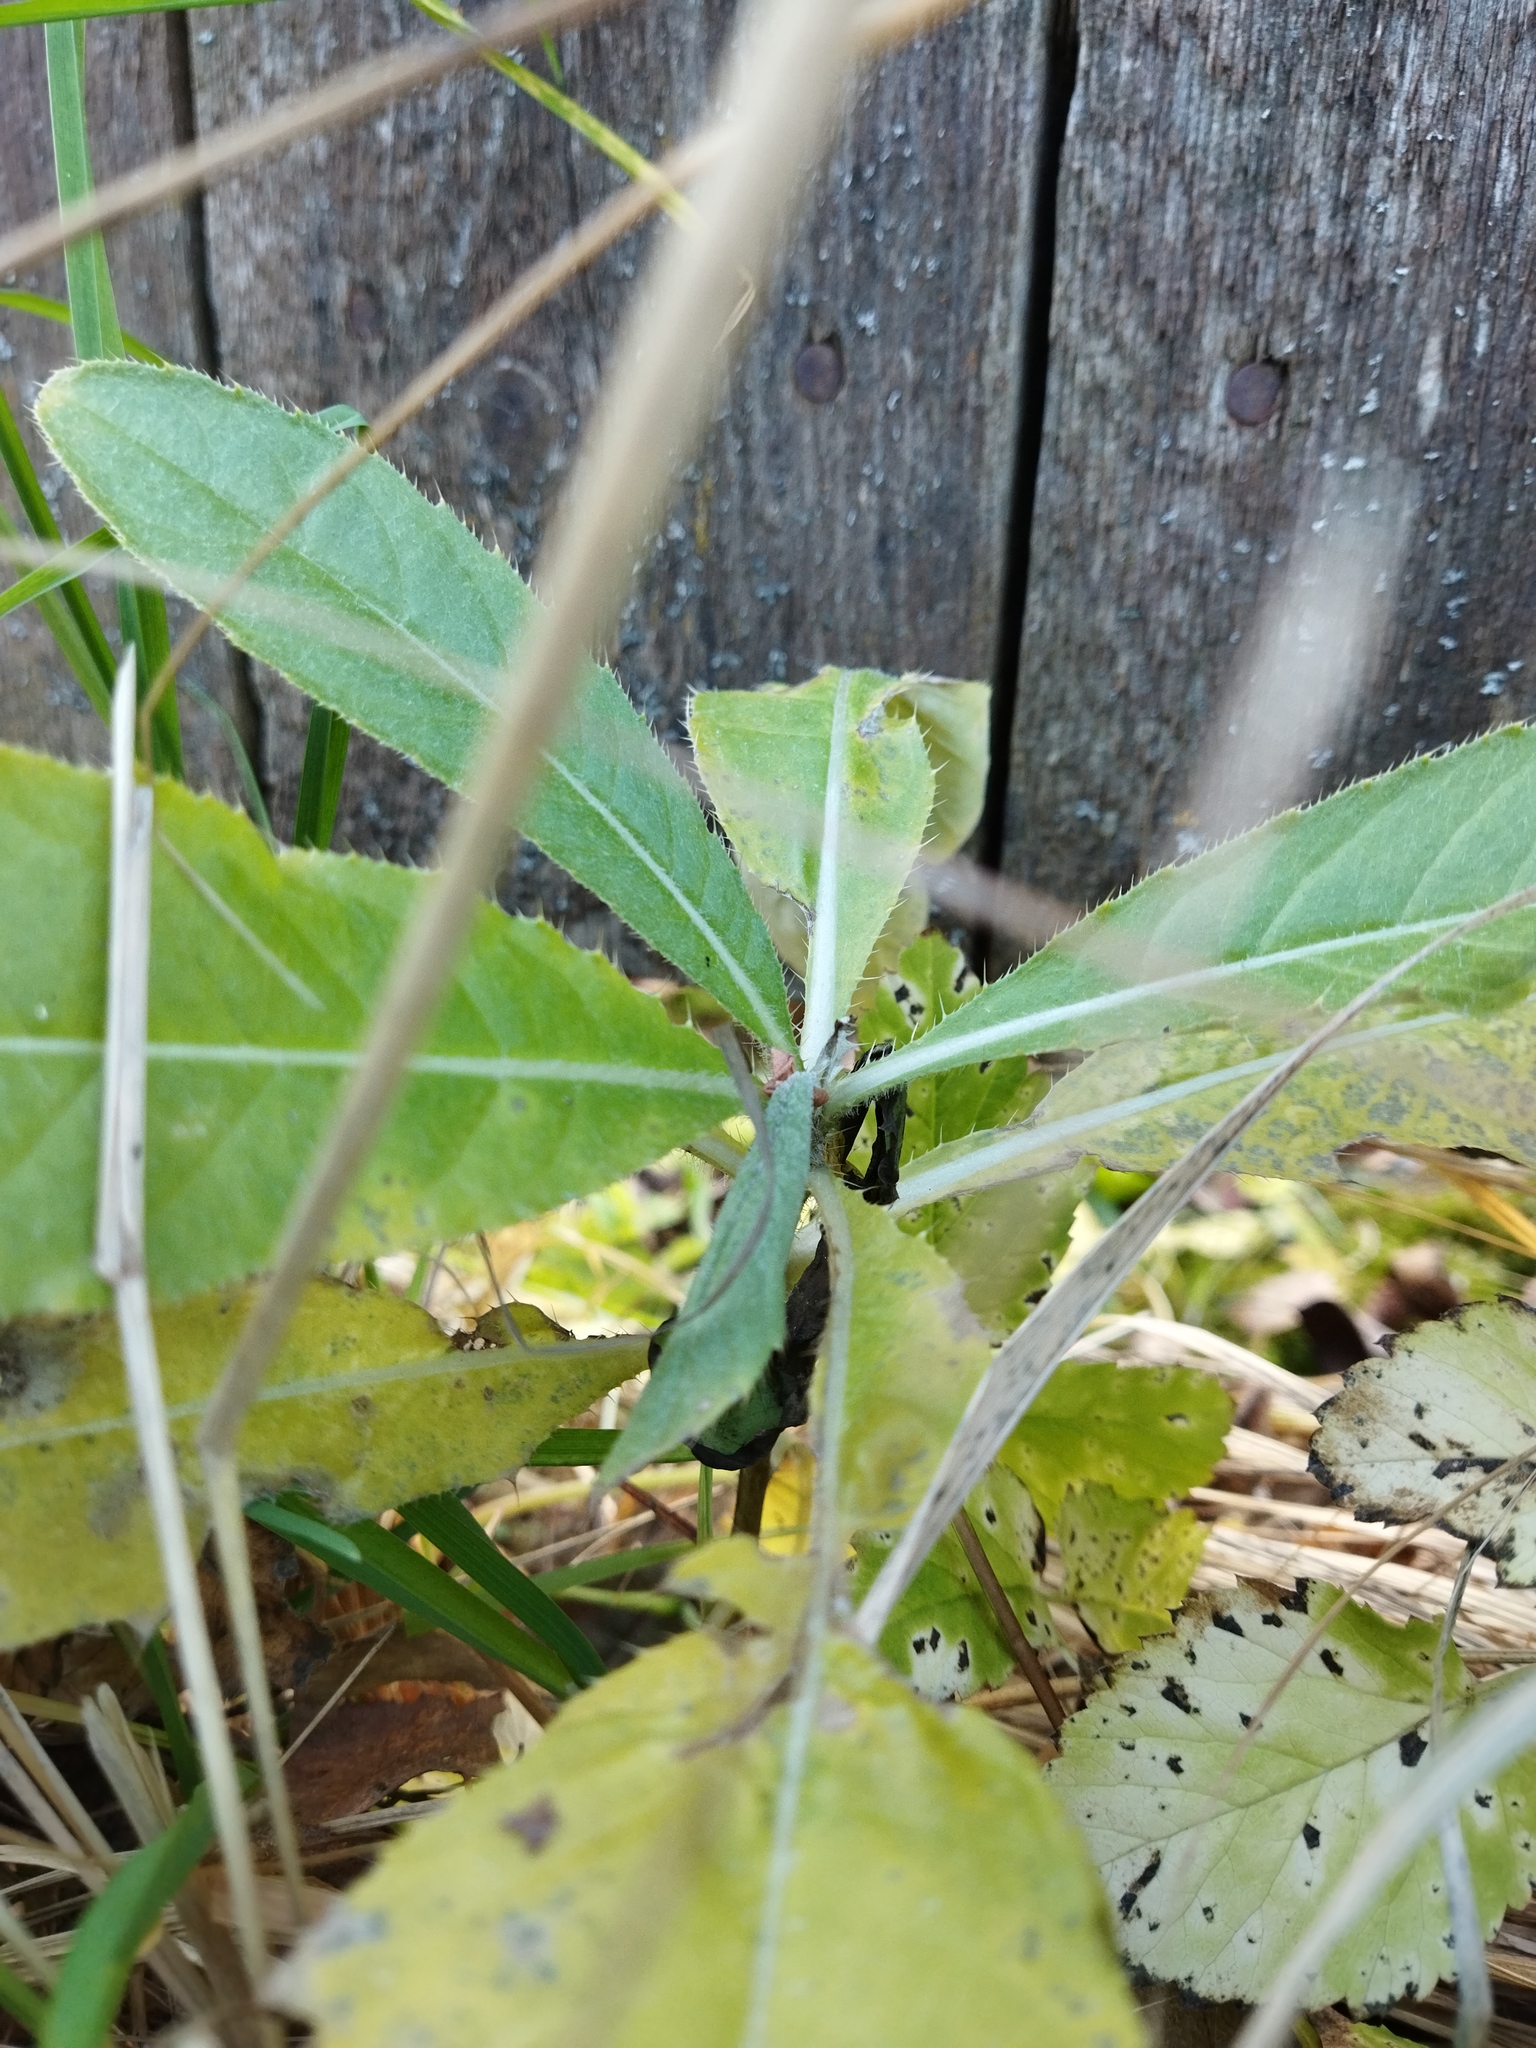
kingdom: Plantae
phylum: Tracheophyta
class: Magnoliopsida
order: Asterales
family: Asteraceae
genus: Cirsium
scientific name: Cirsium arvense
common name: Creeping thistle
